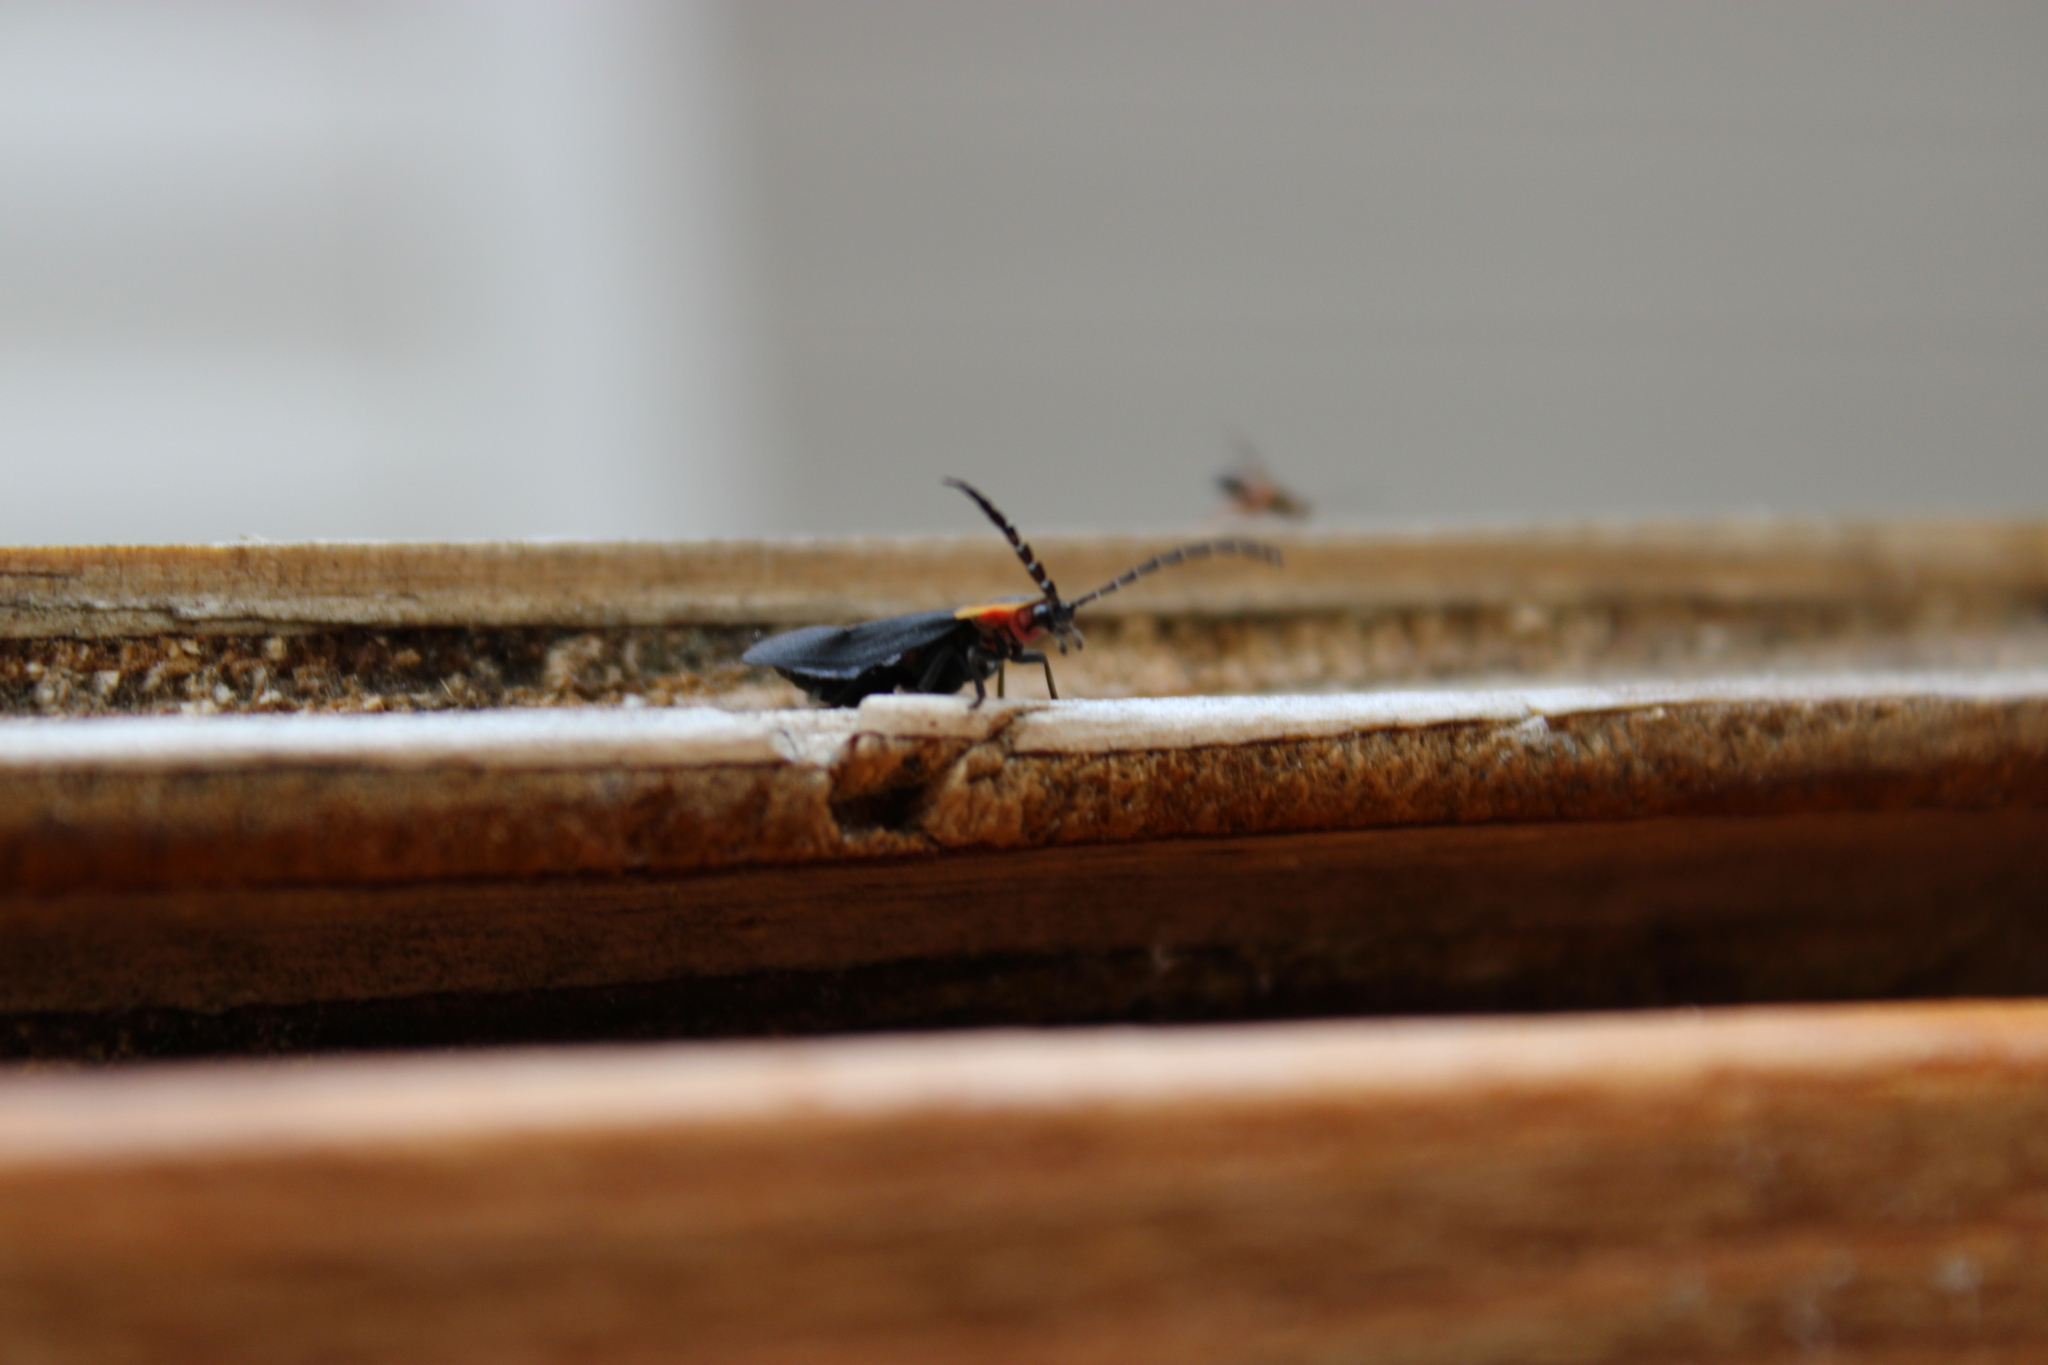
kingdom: Animalia
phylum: Arthropoda
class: Insecta
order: Coleoptera
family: Lampyridae
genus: Lucidota
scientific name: Lucidota atra
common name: Black firefly
